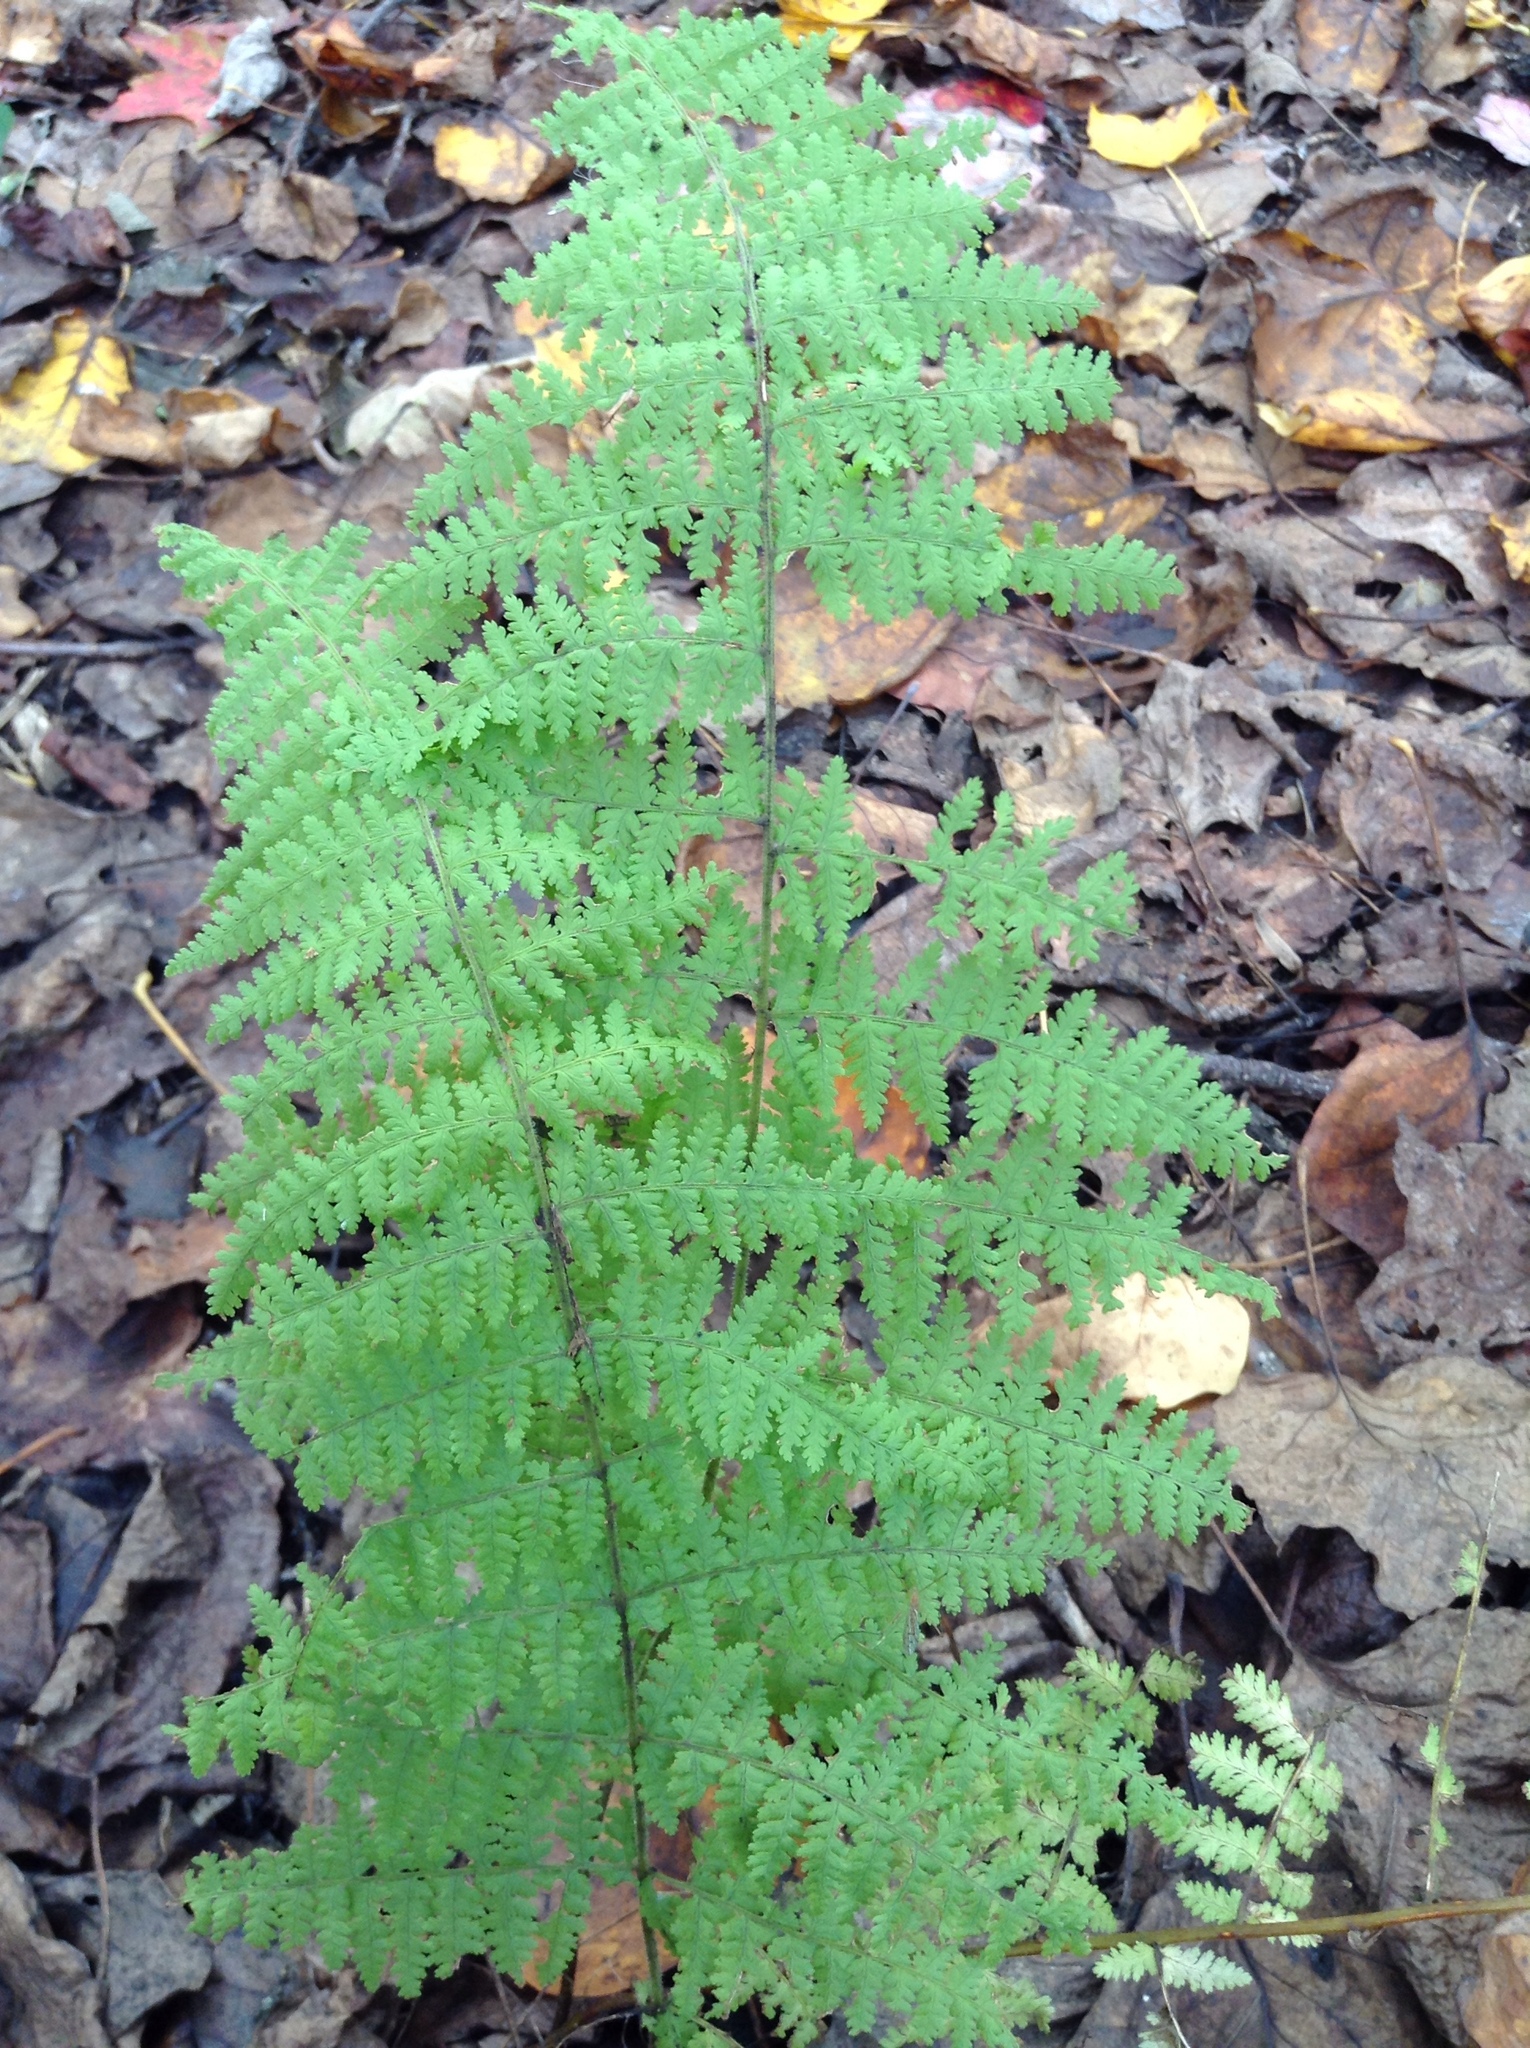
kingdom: Plantae
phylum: Tracheophyta
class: Polypodiopsida
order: Polypodiales
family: Dryopteridaceae
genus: Dryopteris
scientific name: Dryopteris intermedia
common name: Evergreen wood fern
